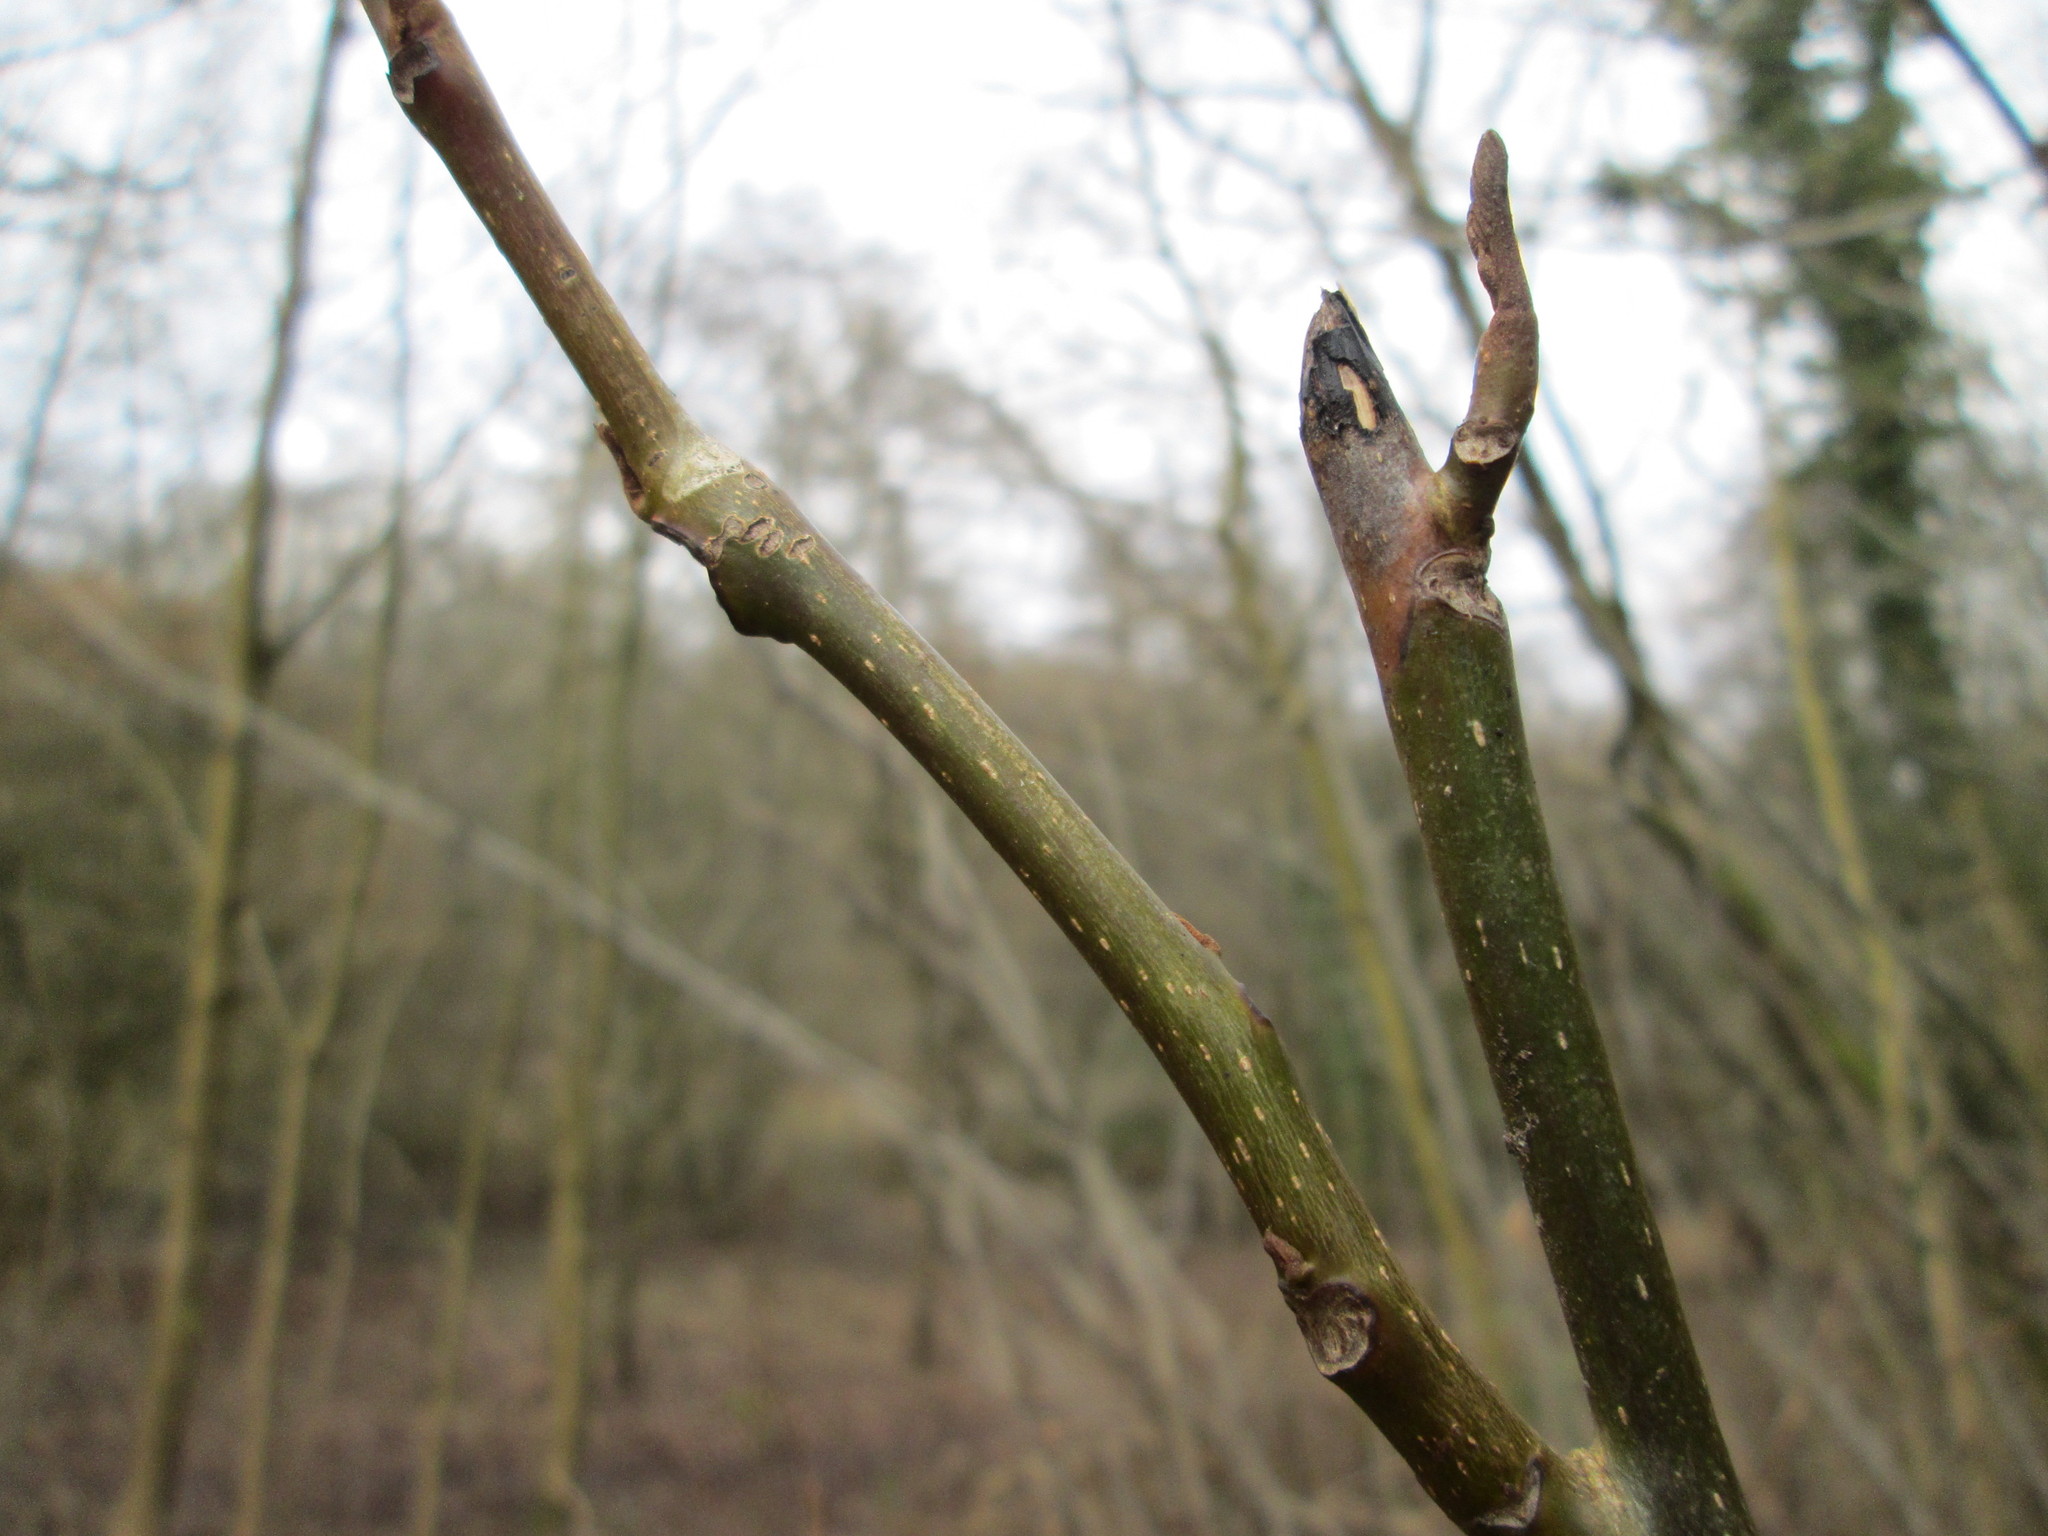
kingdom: Plantae
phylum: Tracheophyta
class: Magnoliopsida
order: Fagales
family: Juglandaceae
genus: Pterocarya
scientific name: Pterocarya fraxinifolia
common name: Caucasian wingnut
